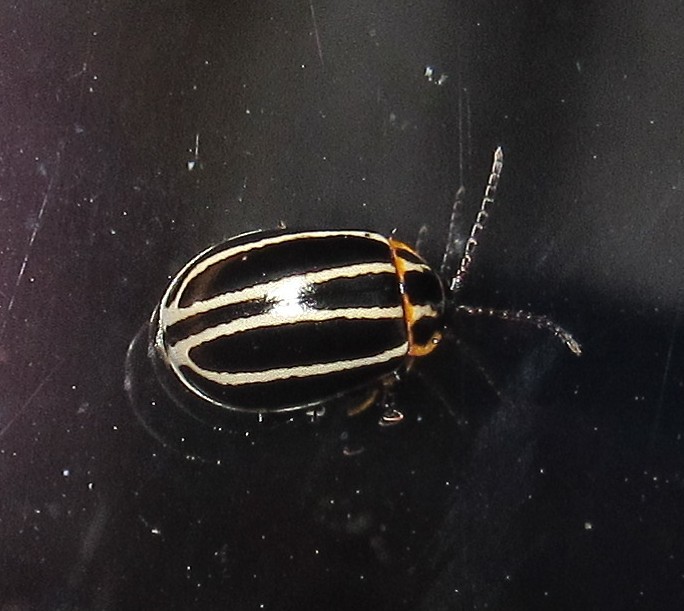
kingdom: Animalia
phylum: Arthropoda
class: Insecta
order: Coleoptera
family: Chrysomelidae
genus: Alagoasa
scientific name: Alagoasa
